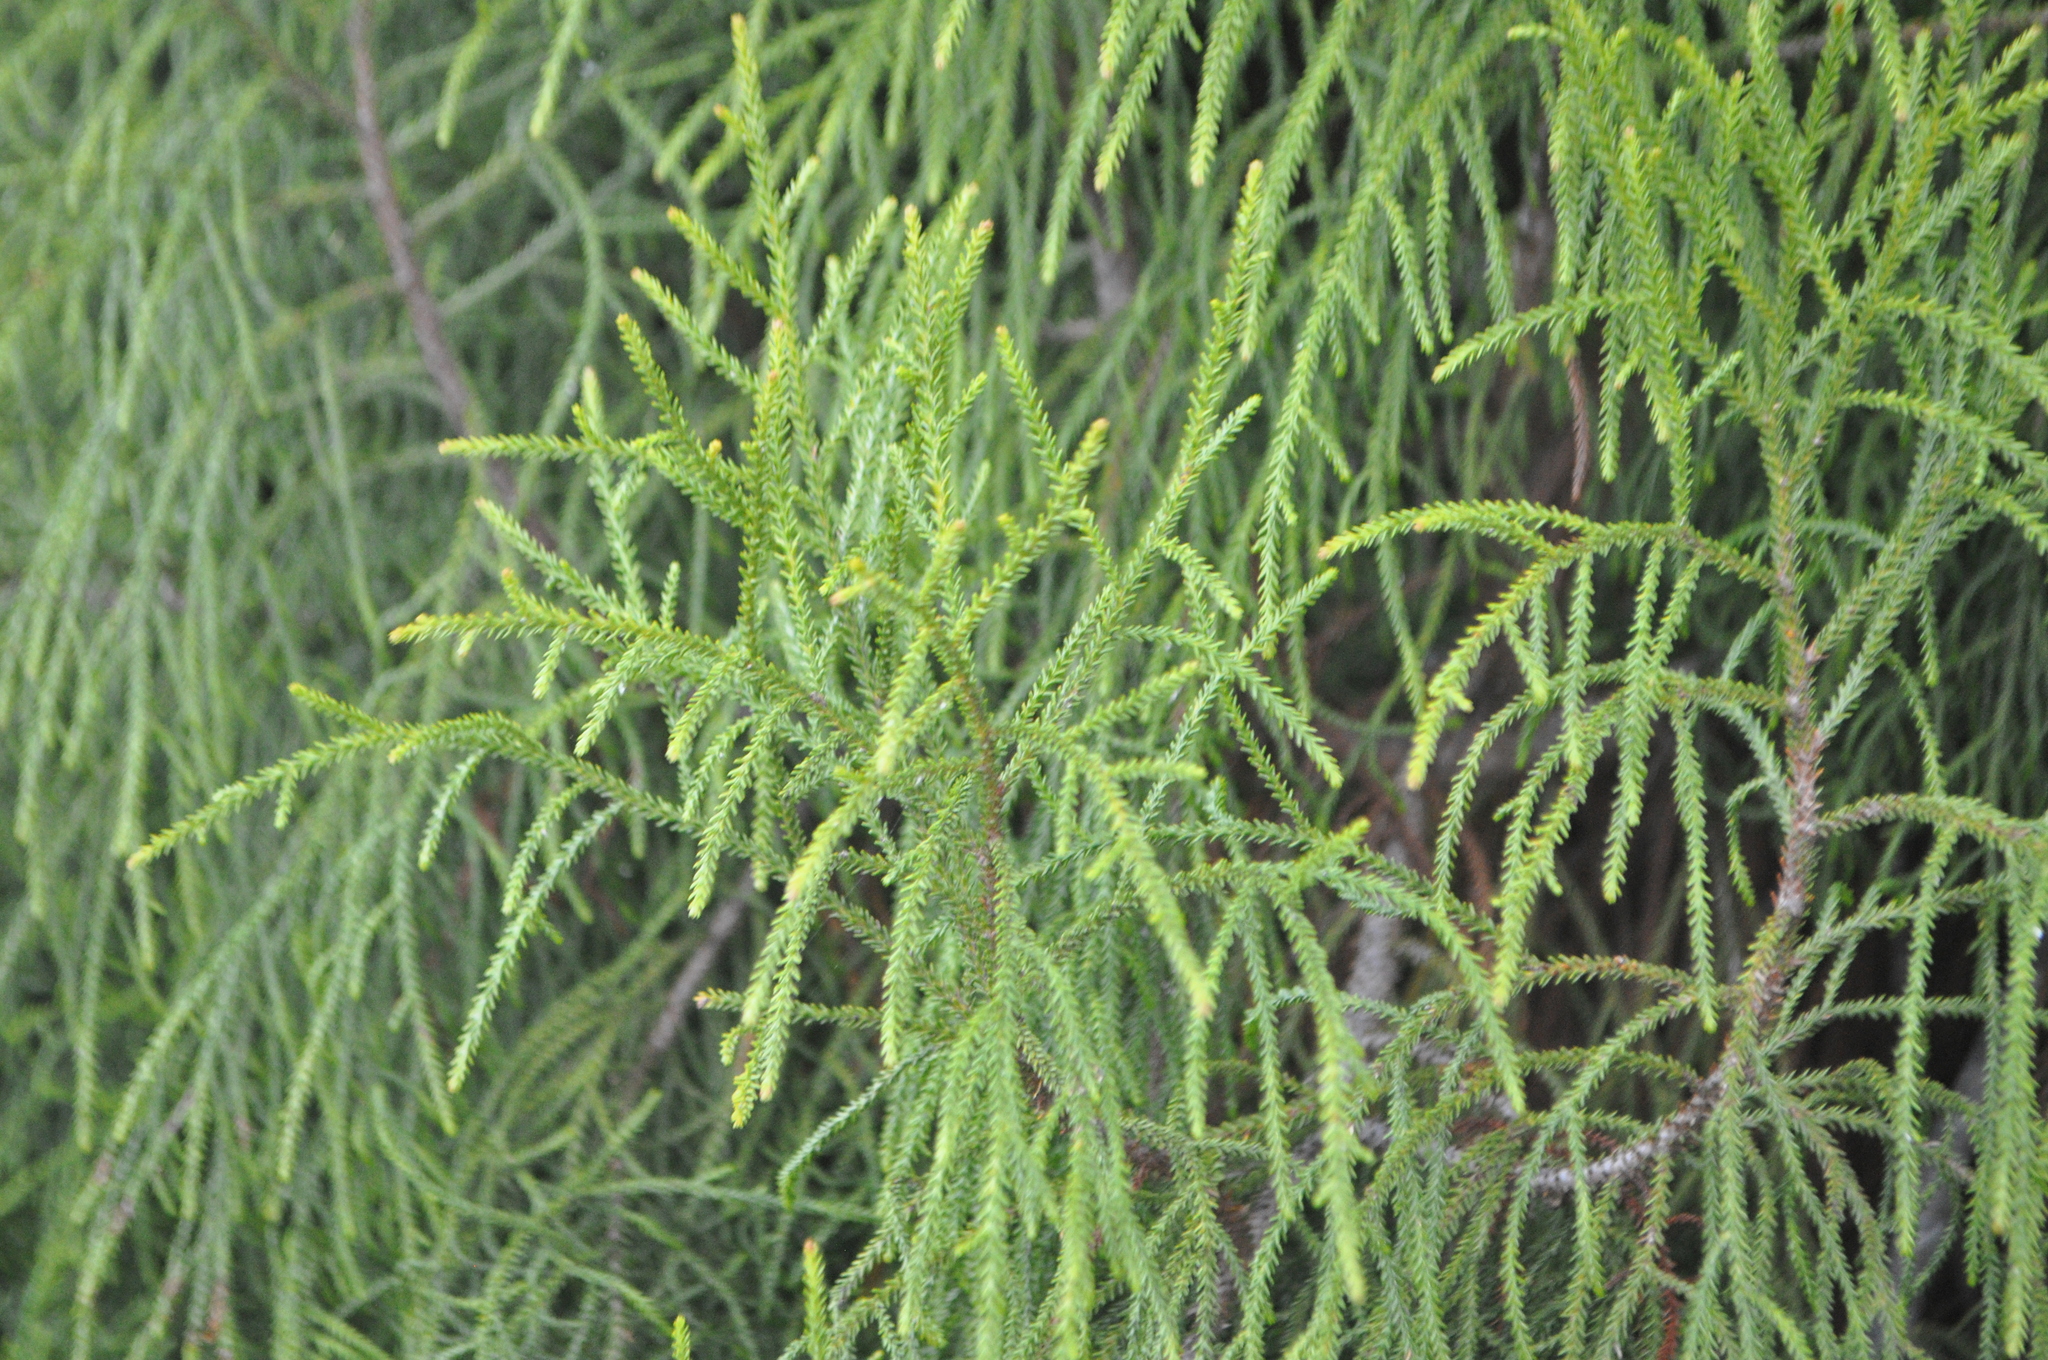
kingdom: Plantae
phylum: Tracheophyta
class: Pinopsida
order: Pinales
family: Podocarpaceae
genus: Dacrydium
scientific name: Dacrydium cupressinum
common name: Red pine
